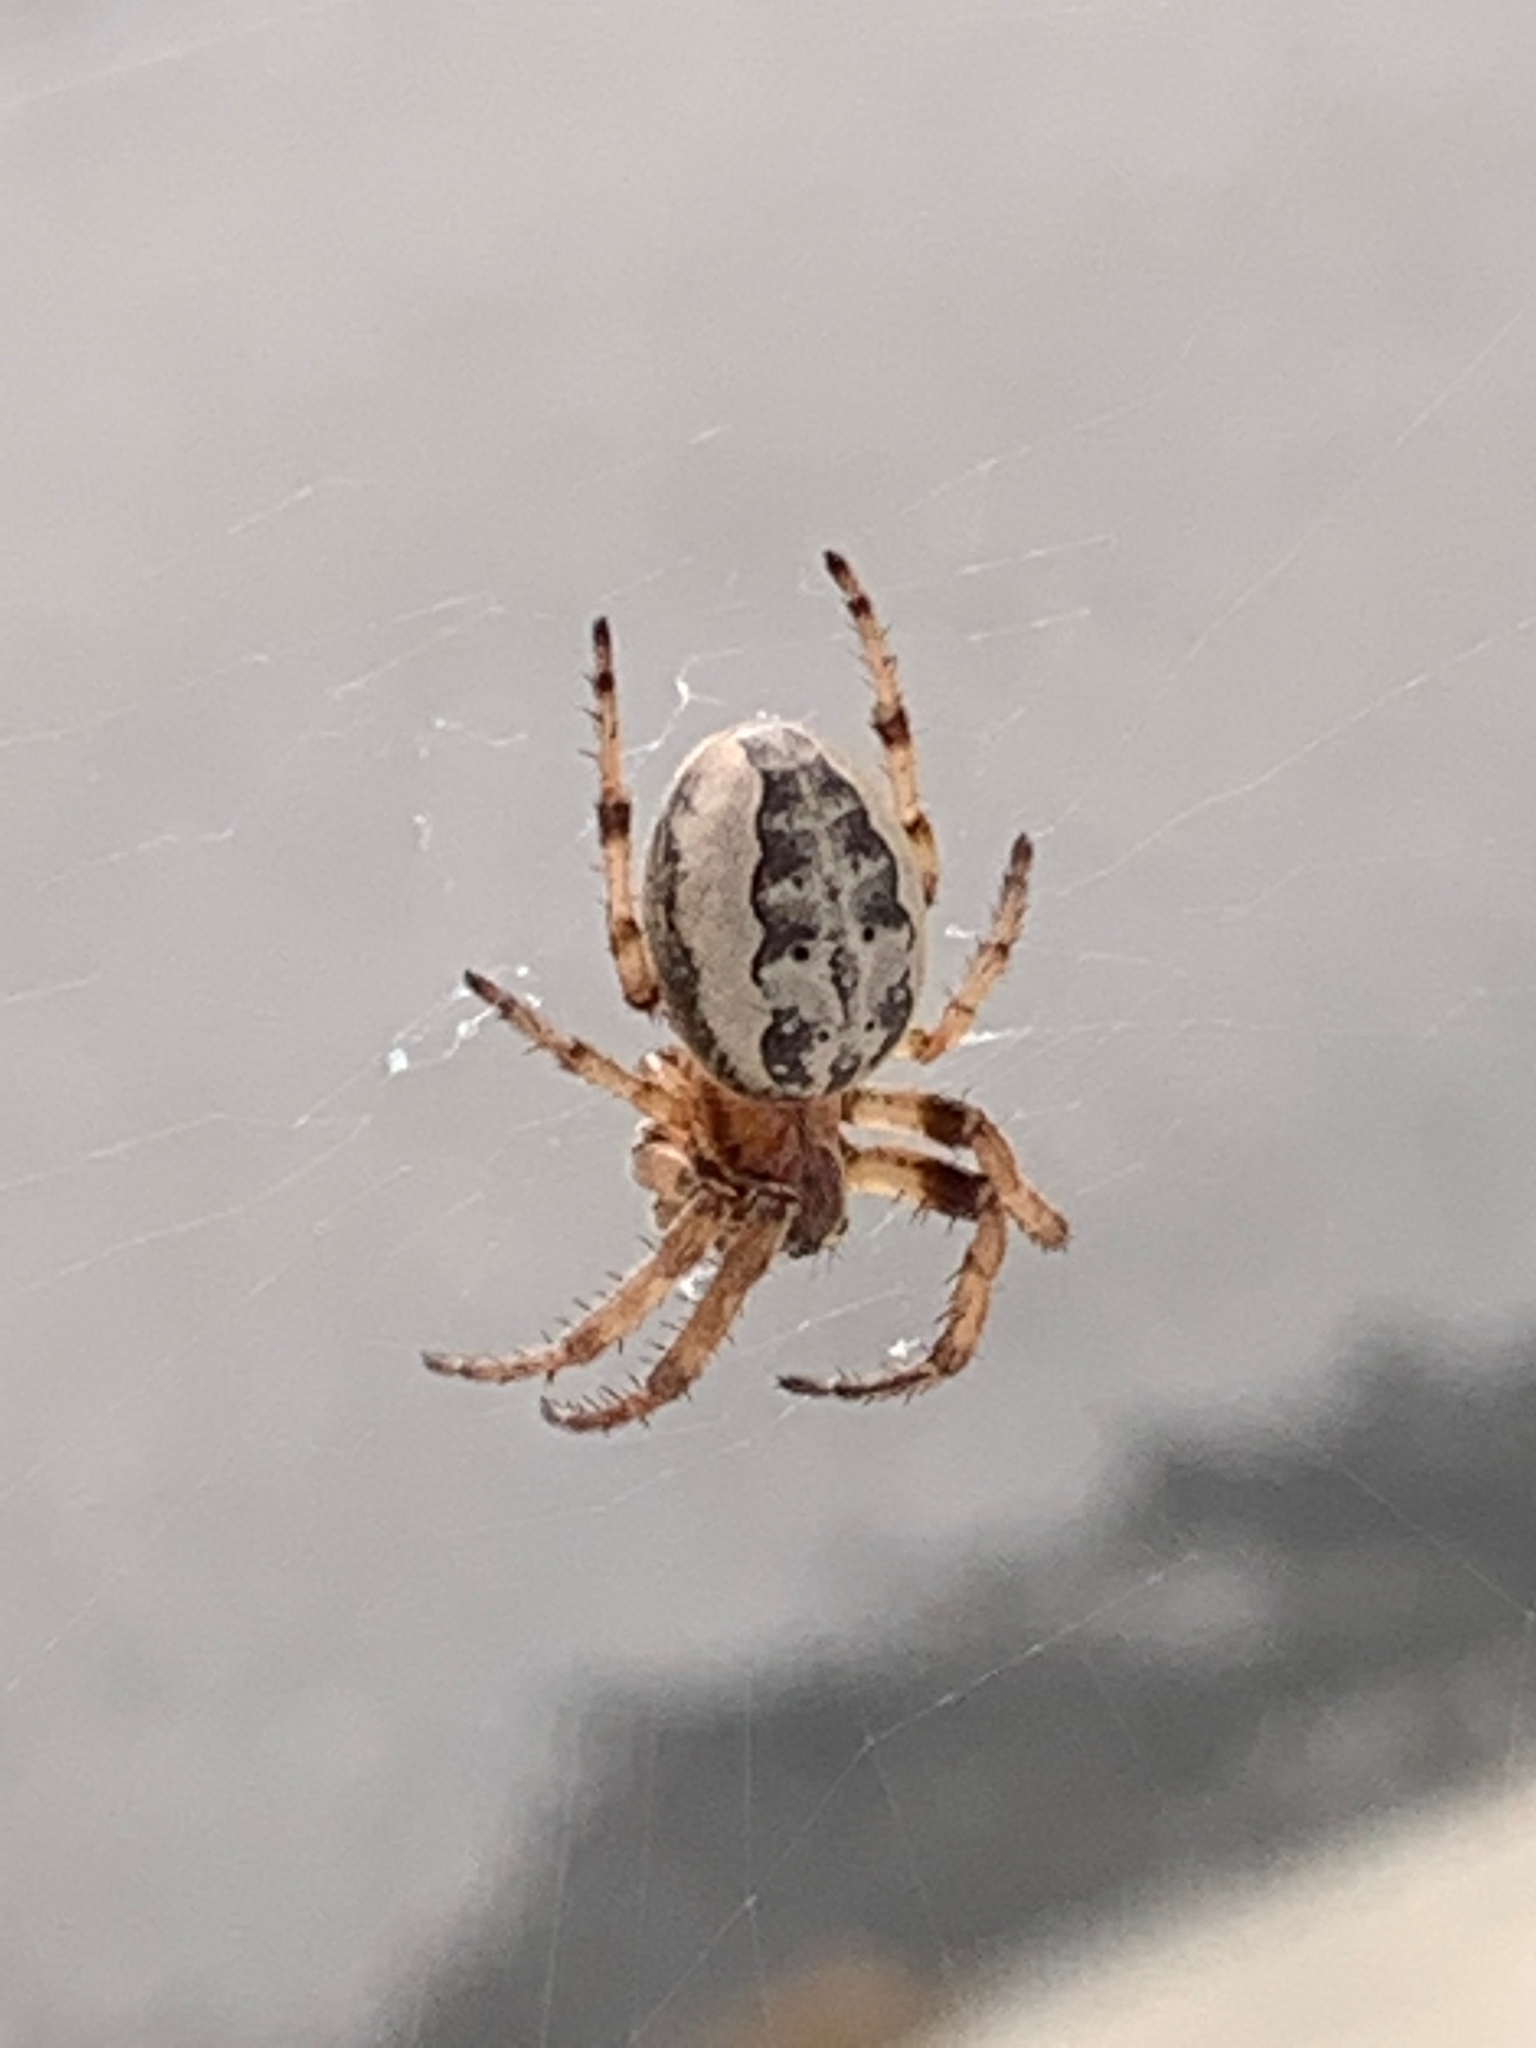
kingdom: Animalia
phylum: Arthropoda
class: Arachnida
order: Araneae
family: Araneidae
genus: Larinioides
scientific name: Larinioides cornutus
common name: Furrow orbweaver
